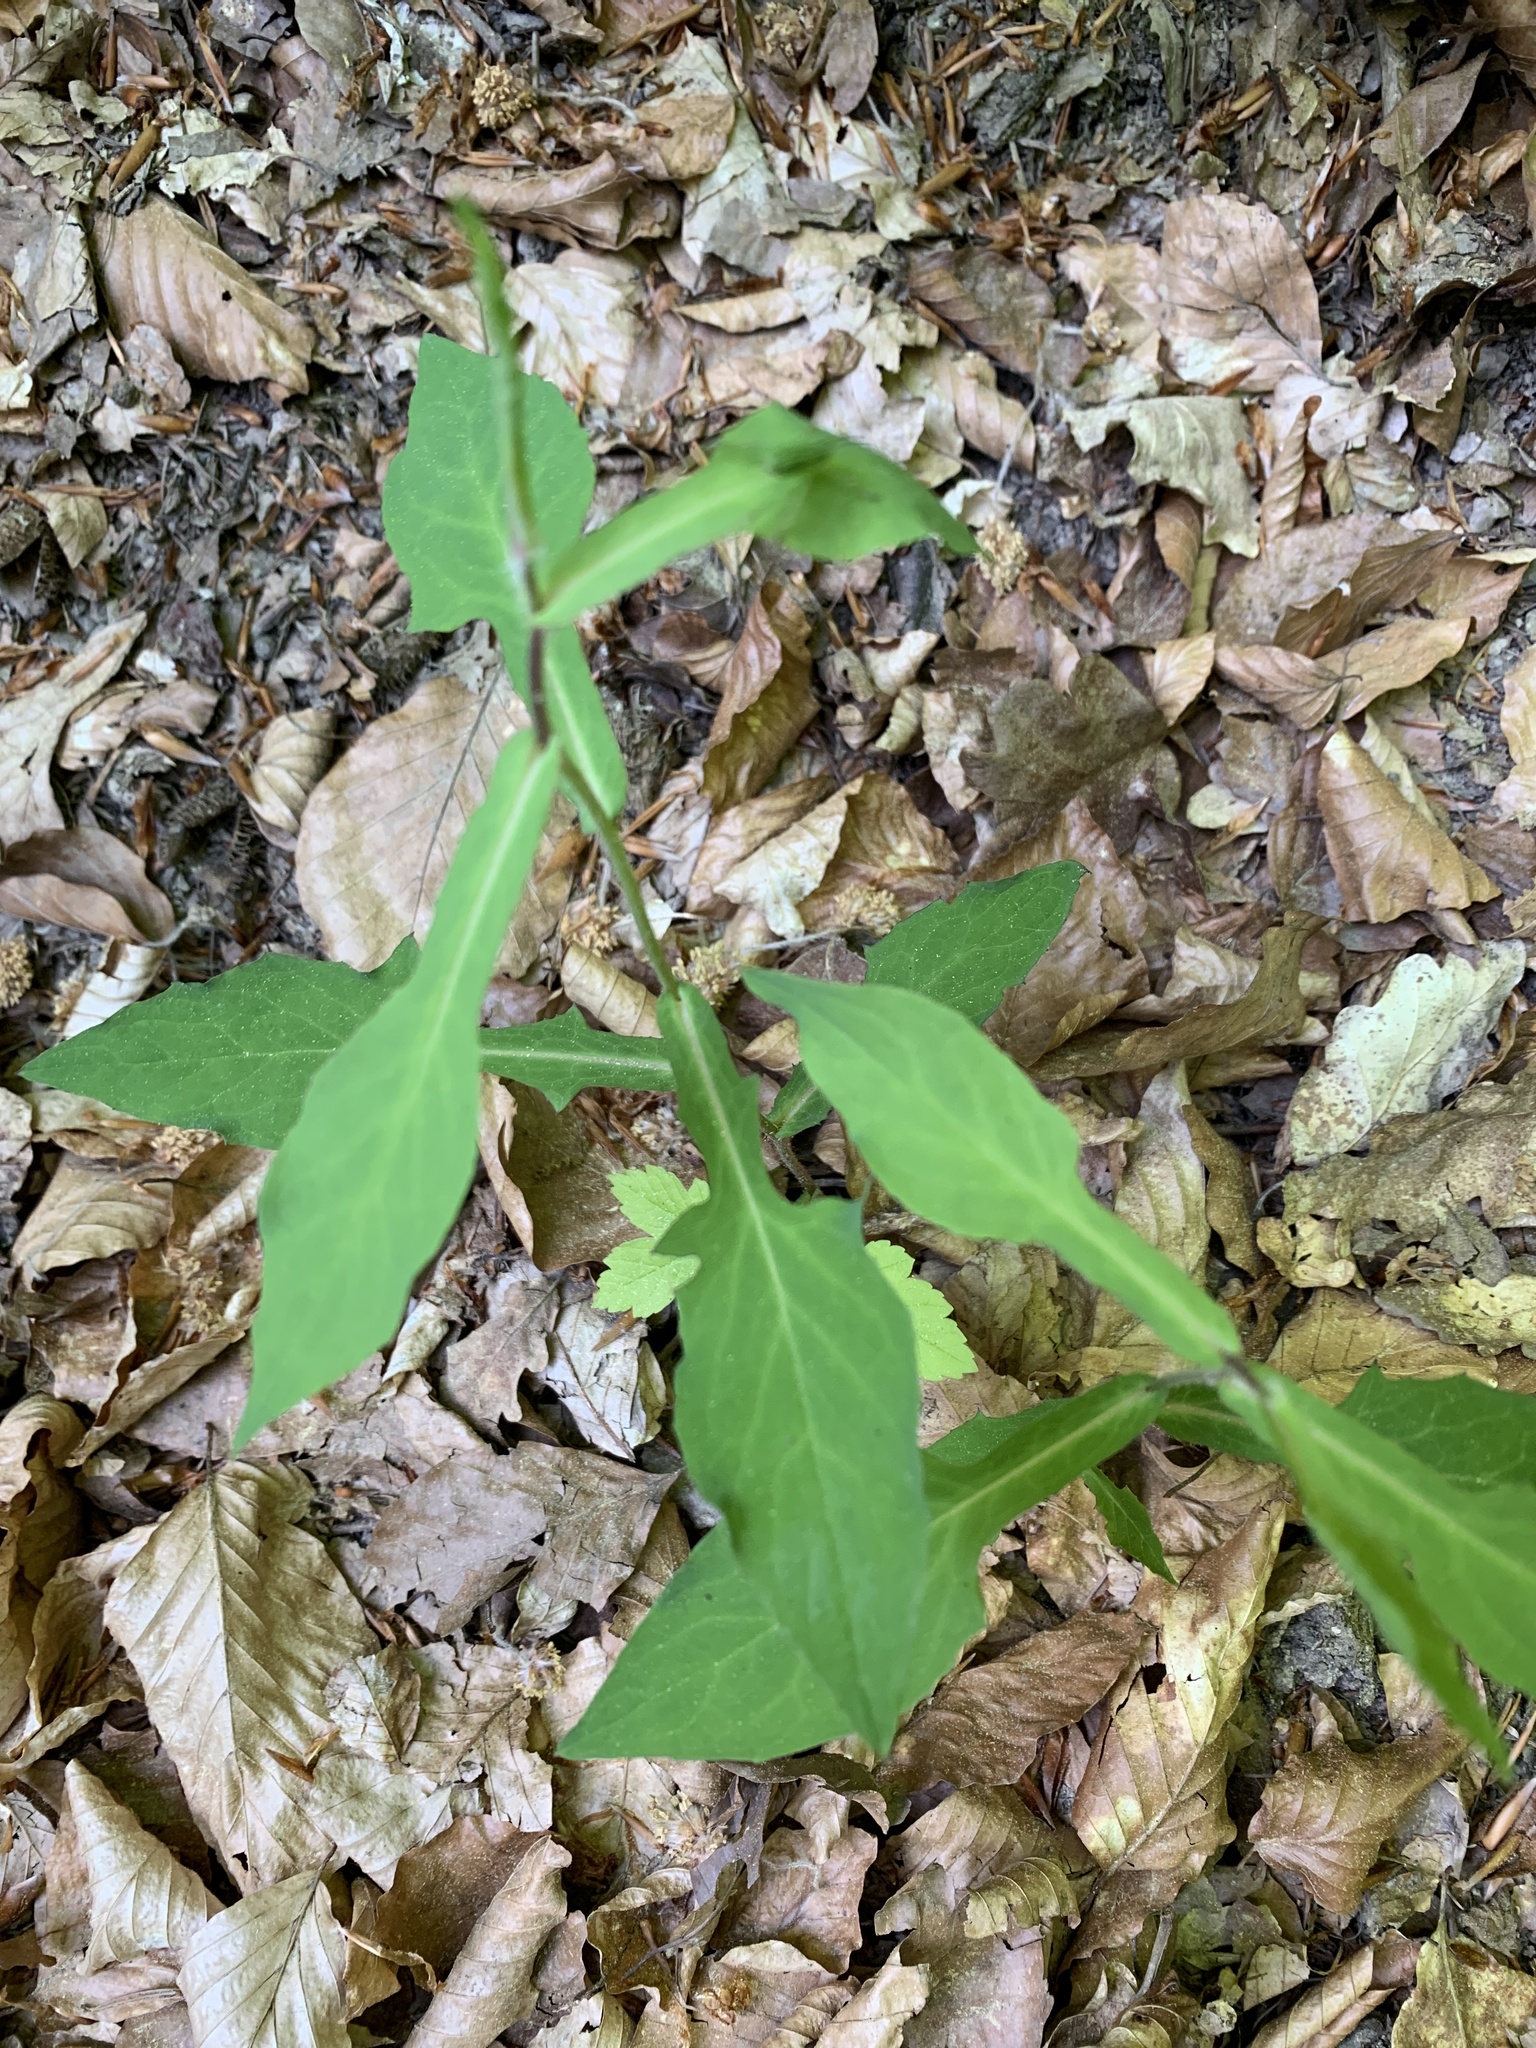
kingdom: Plantae
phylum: Tracheophyta
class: Magnoliopsida
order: Asterales
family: Asteraceae
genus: Prenanthes
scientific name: Prenanthes purpurea
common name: Purple lettuce
